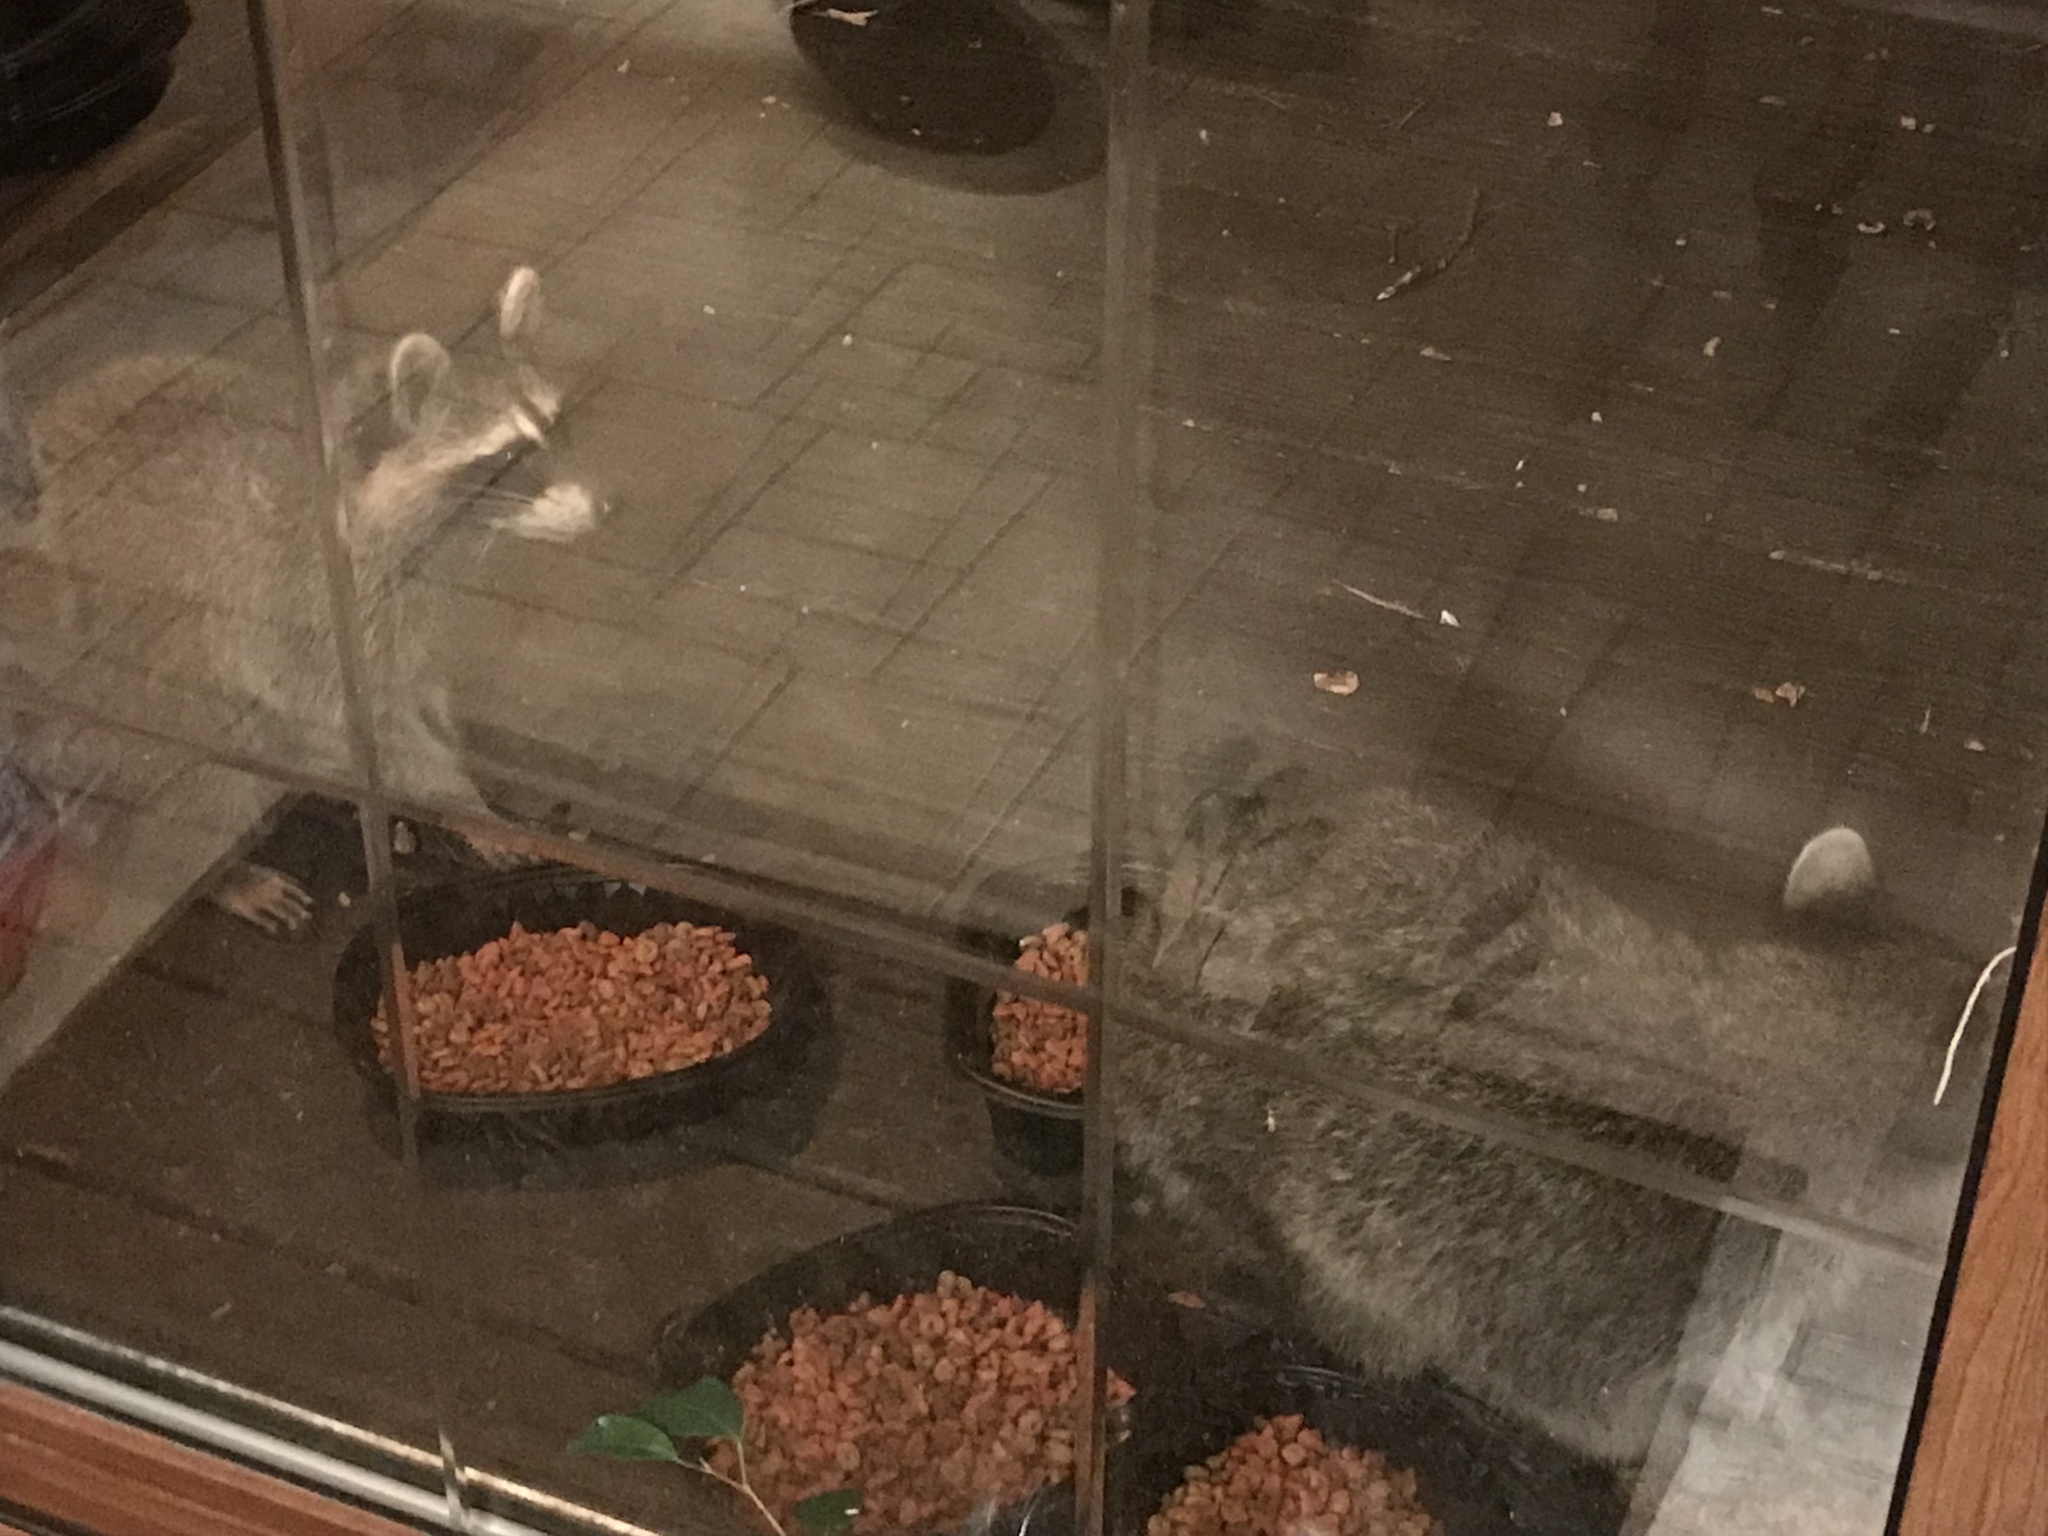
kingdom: Animalia
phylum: Chordata
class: Mammalia
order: Carnivora
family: Procyonidae
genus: Procyon
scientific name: Procyon lotor
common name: Raccoon
